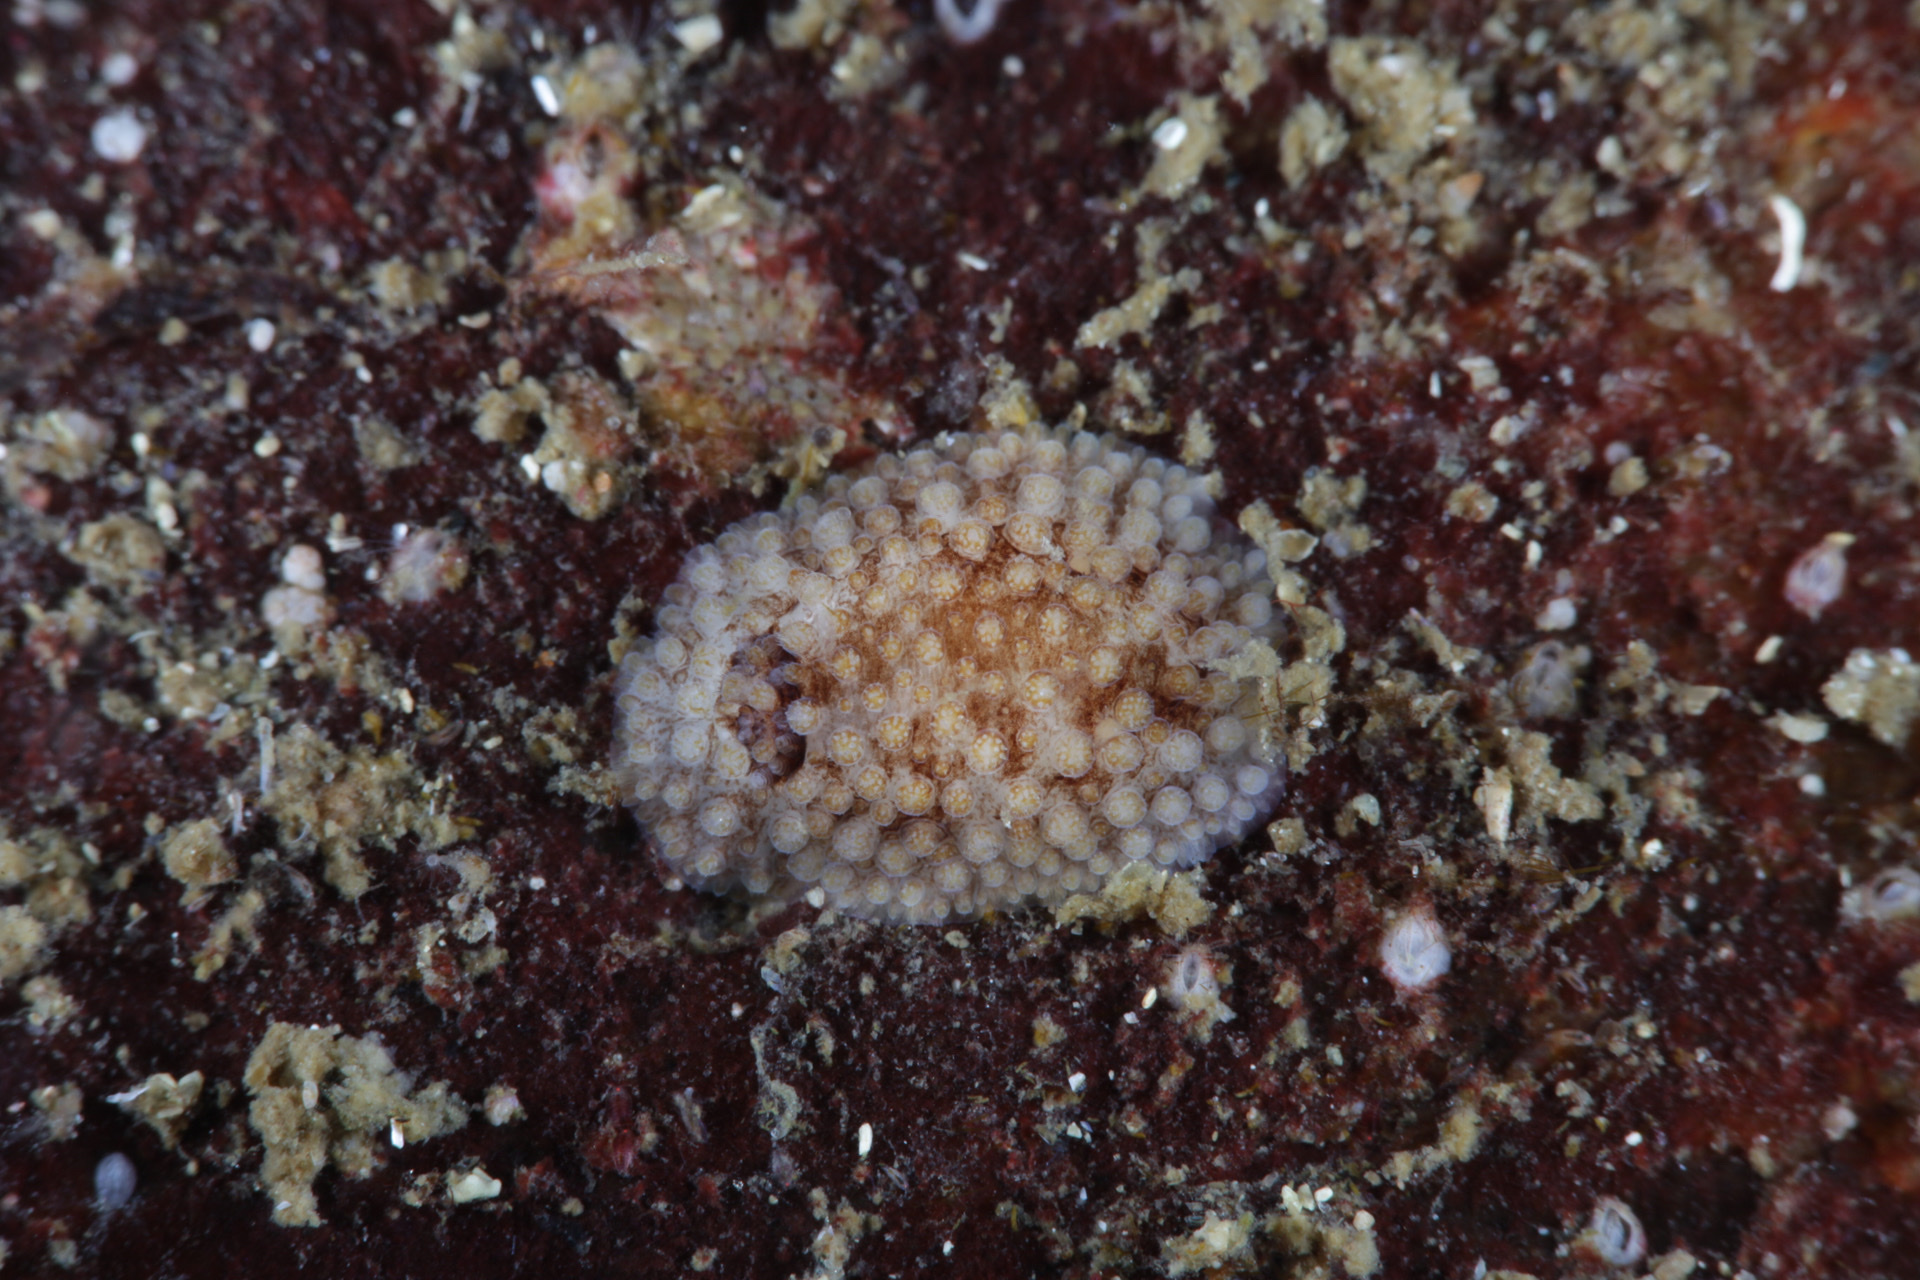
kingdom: Animalia
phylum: Mollusca
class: Gastropoda
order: Nudibranchia
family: Onchidorididae
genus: Onchidoris
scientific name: Onchidoris bilamellata
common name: Barnacle-eating onchidoris
